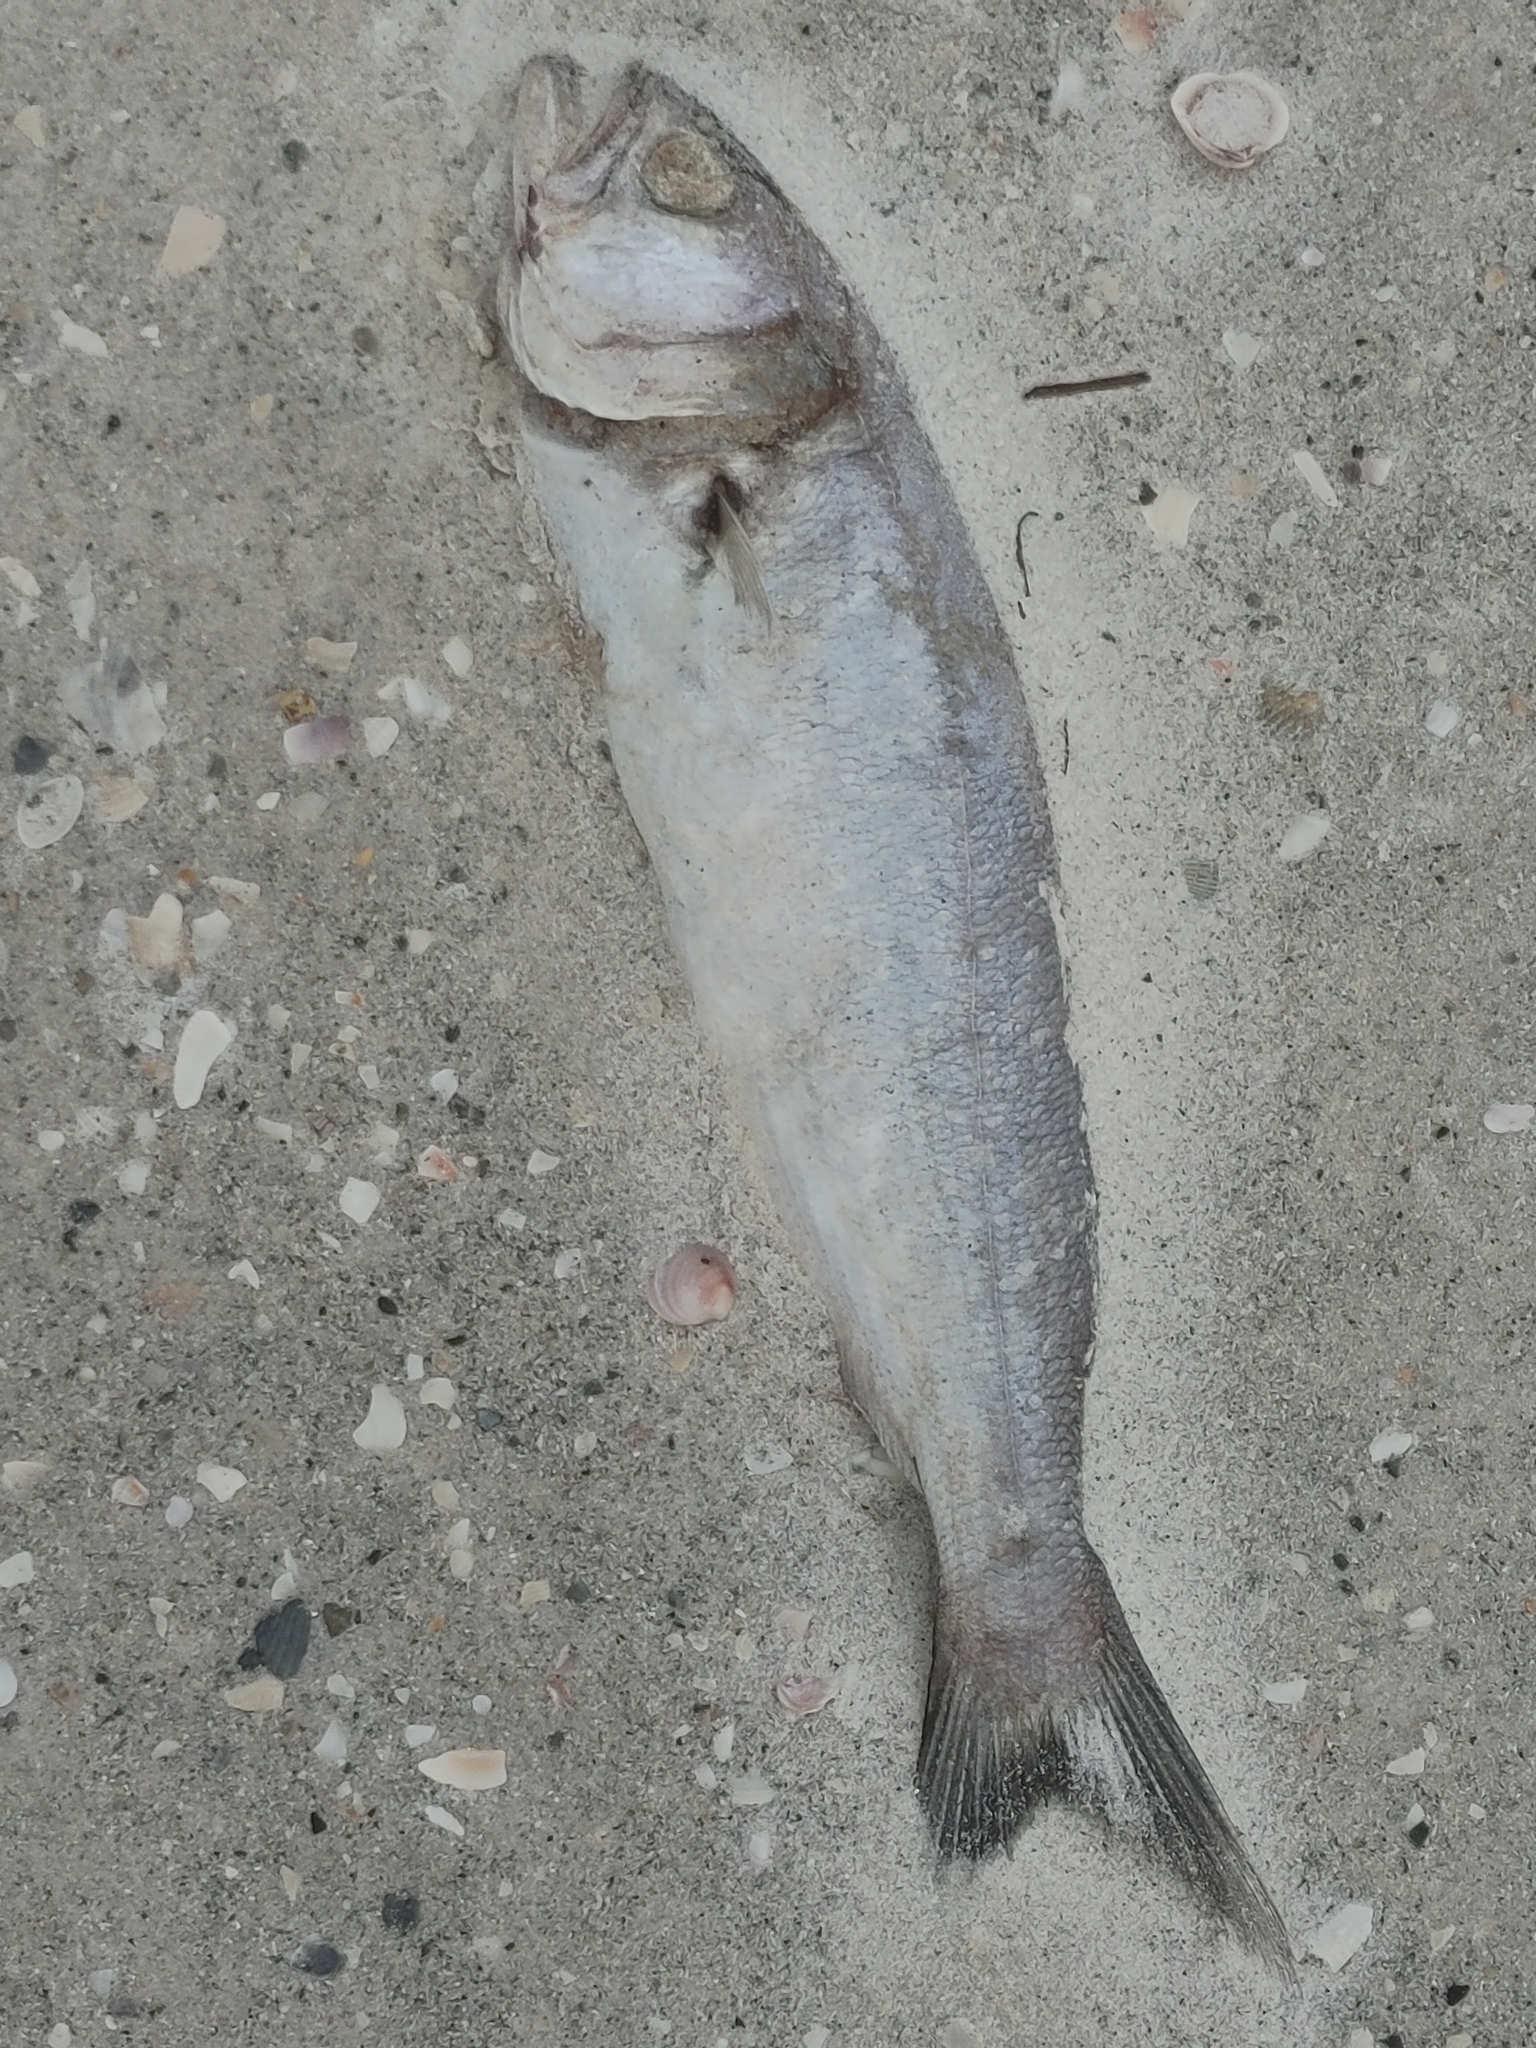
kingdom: Animalia
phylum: Chordata
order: Perciformes
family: Pomatomidae
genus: Pomatomus
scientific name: Pomatomus saltatrix
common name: Bluefish
